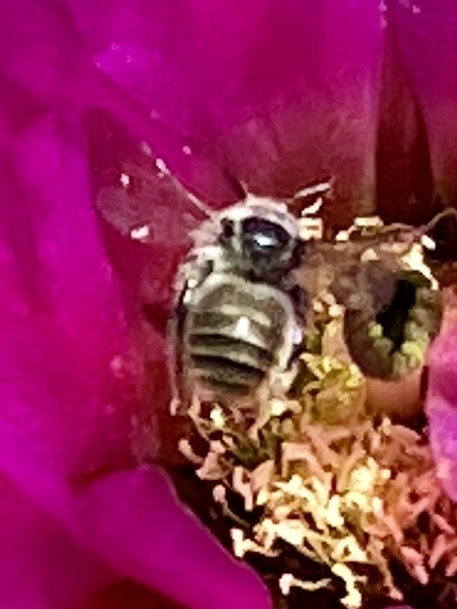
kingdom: Animalia
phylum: Arthropoda
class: Insecta
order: Hymenoptera
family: Apidae
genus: Diadasia
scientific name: Diadasia
